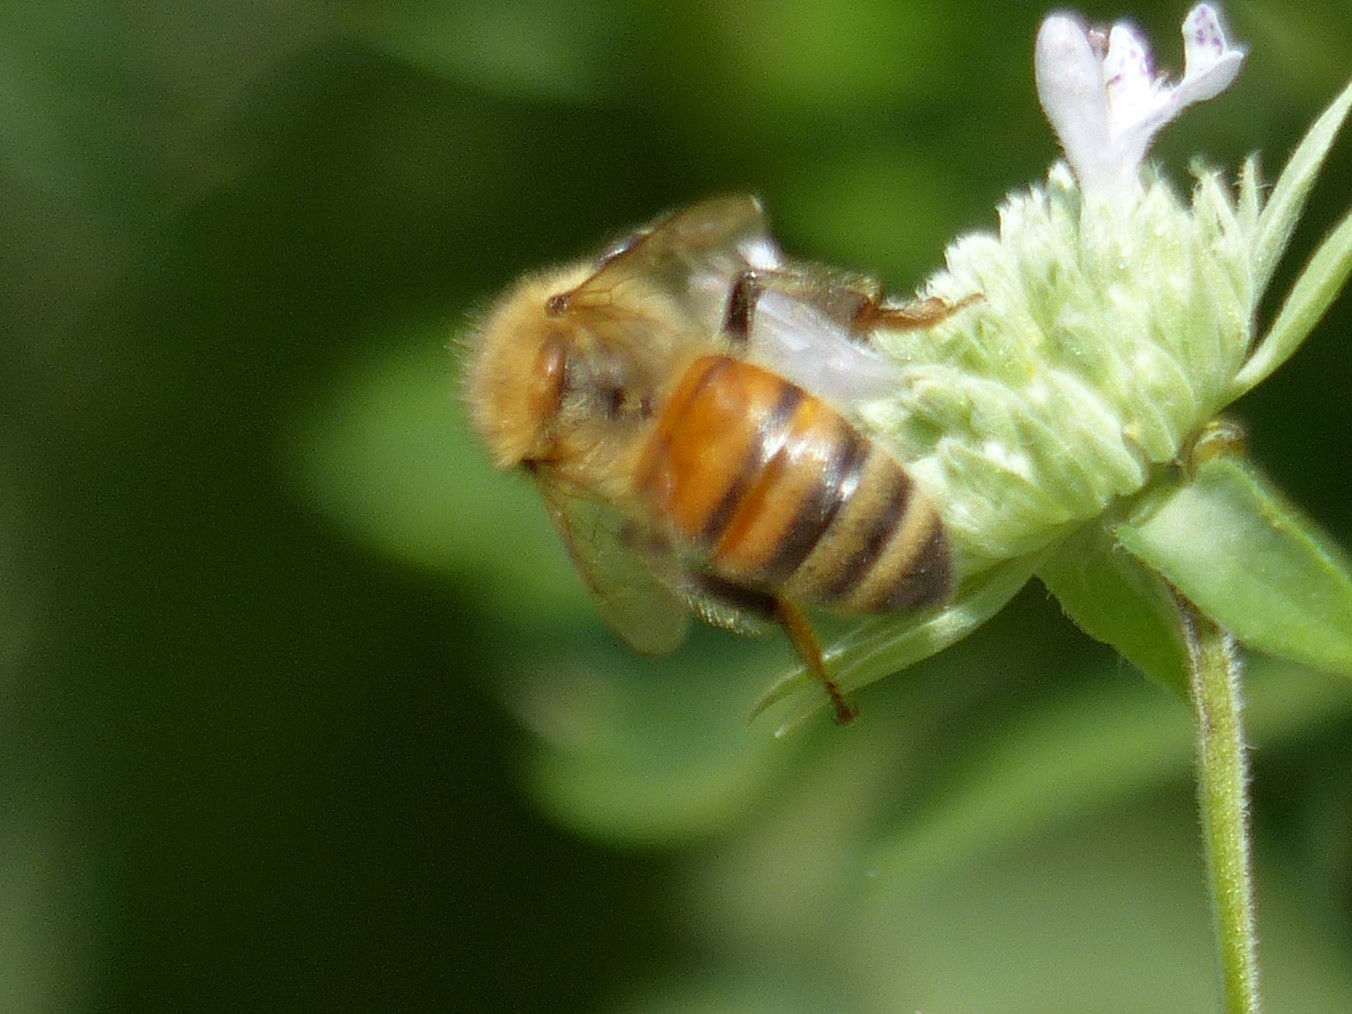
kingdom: Animalia
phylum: Arthropoda
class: Insecta
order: Hymenoptera
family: Apidae
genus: Apis
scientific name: Apis mellifera
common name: Honey bee
